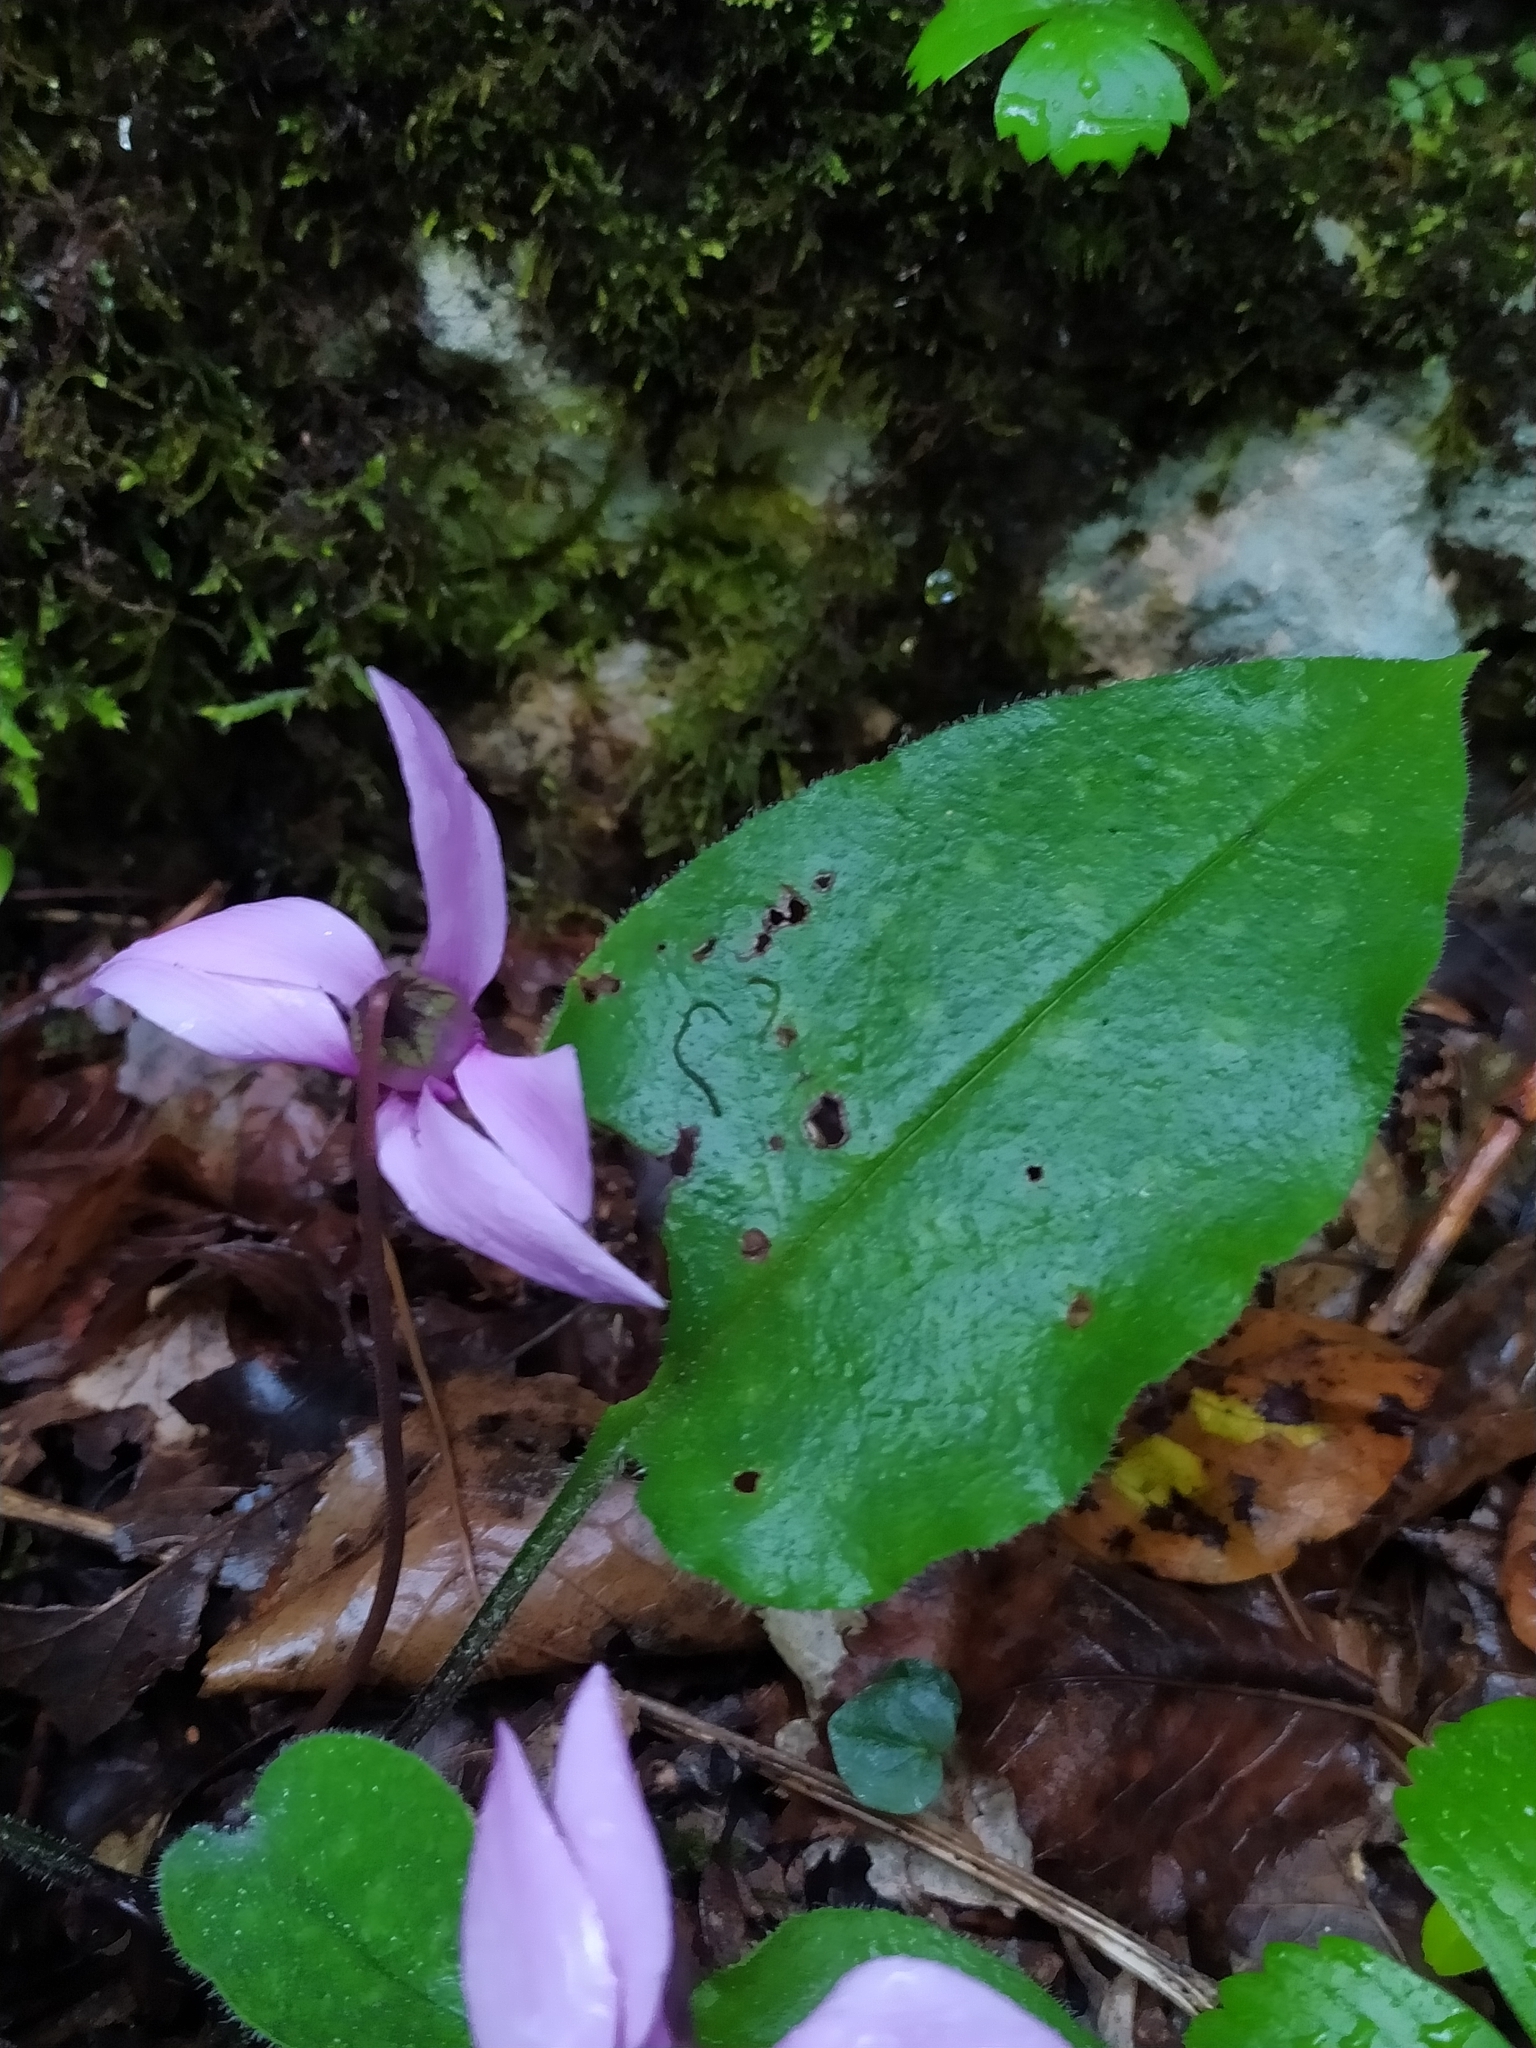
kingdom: Plantae
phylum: Tracheophyta
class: Magnoliopsida
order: Ericales
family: Primulaceae
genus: Cyclamen
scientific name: Cyclamen purpurascens
